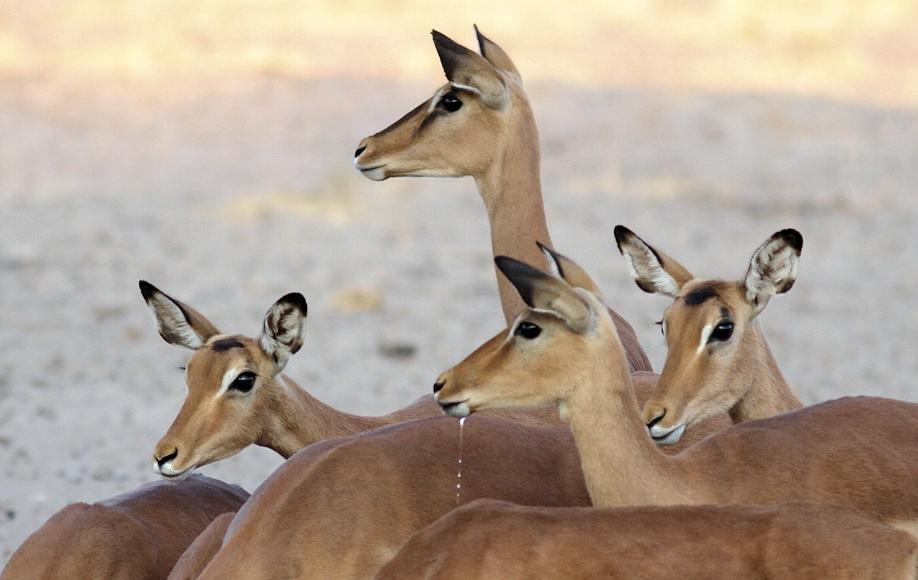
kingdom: Animalia
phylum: Chordata
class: Mammalia
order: Artiodactyla
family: Bovidae
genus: Aepyceros
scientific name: Aepyceros melampus
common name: Impala
